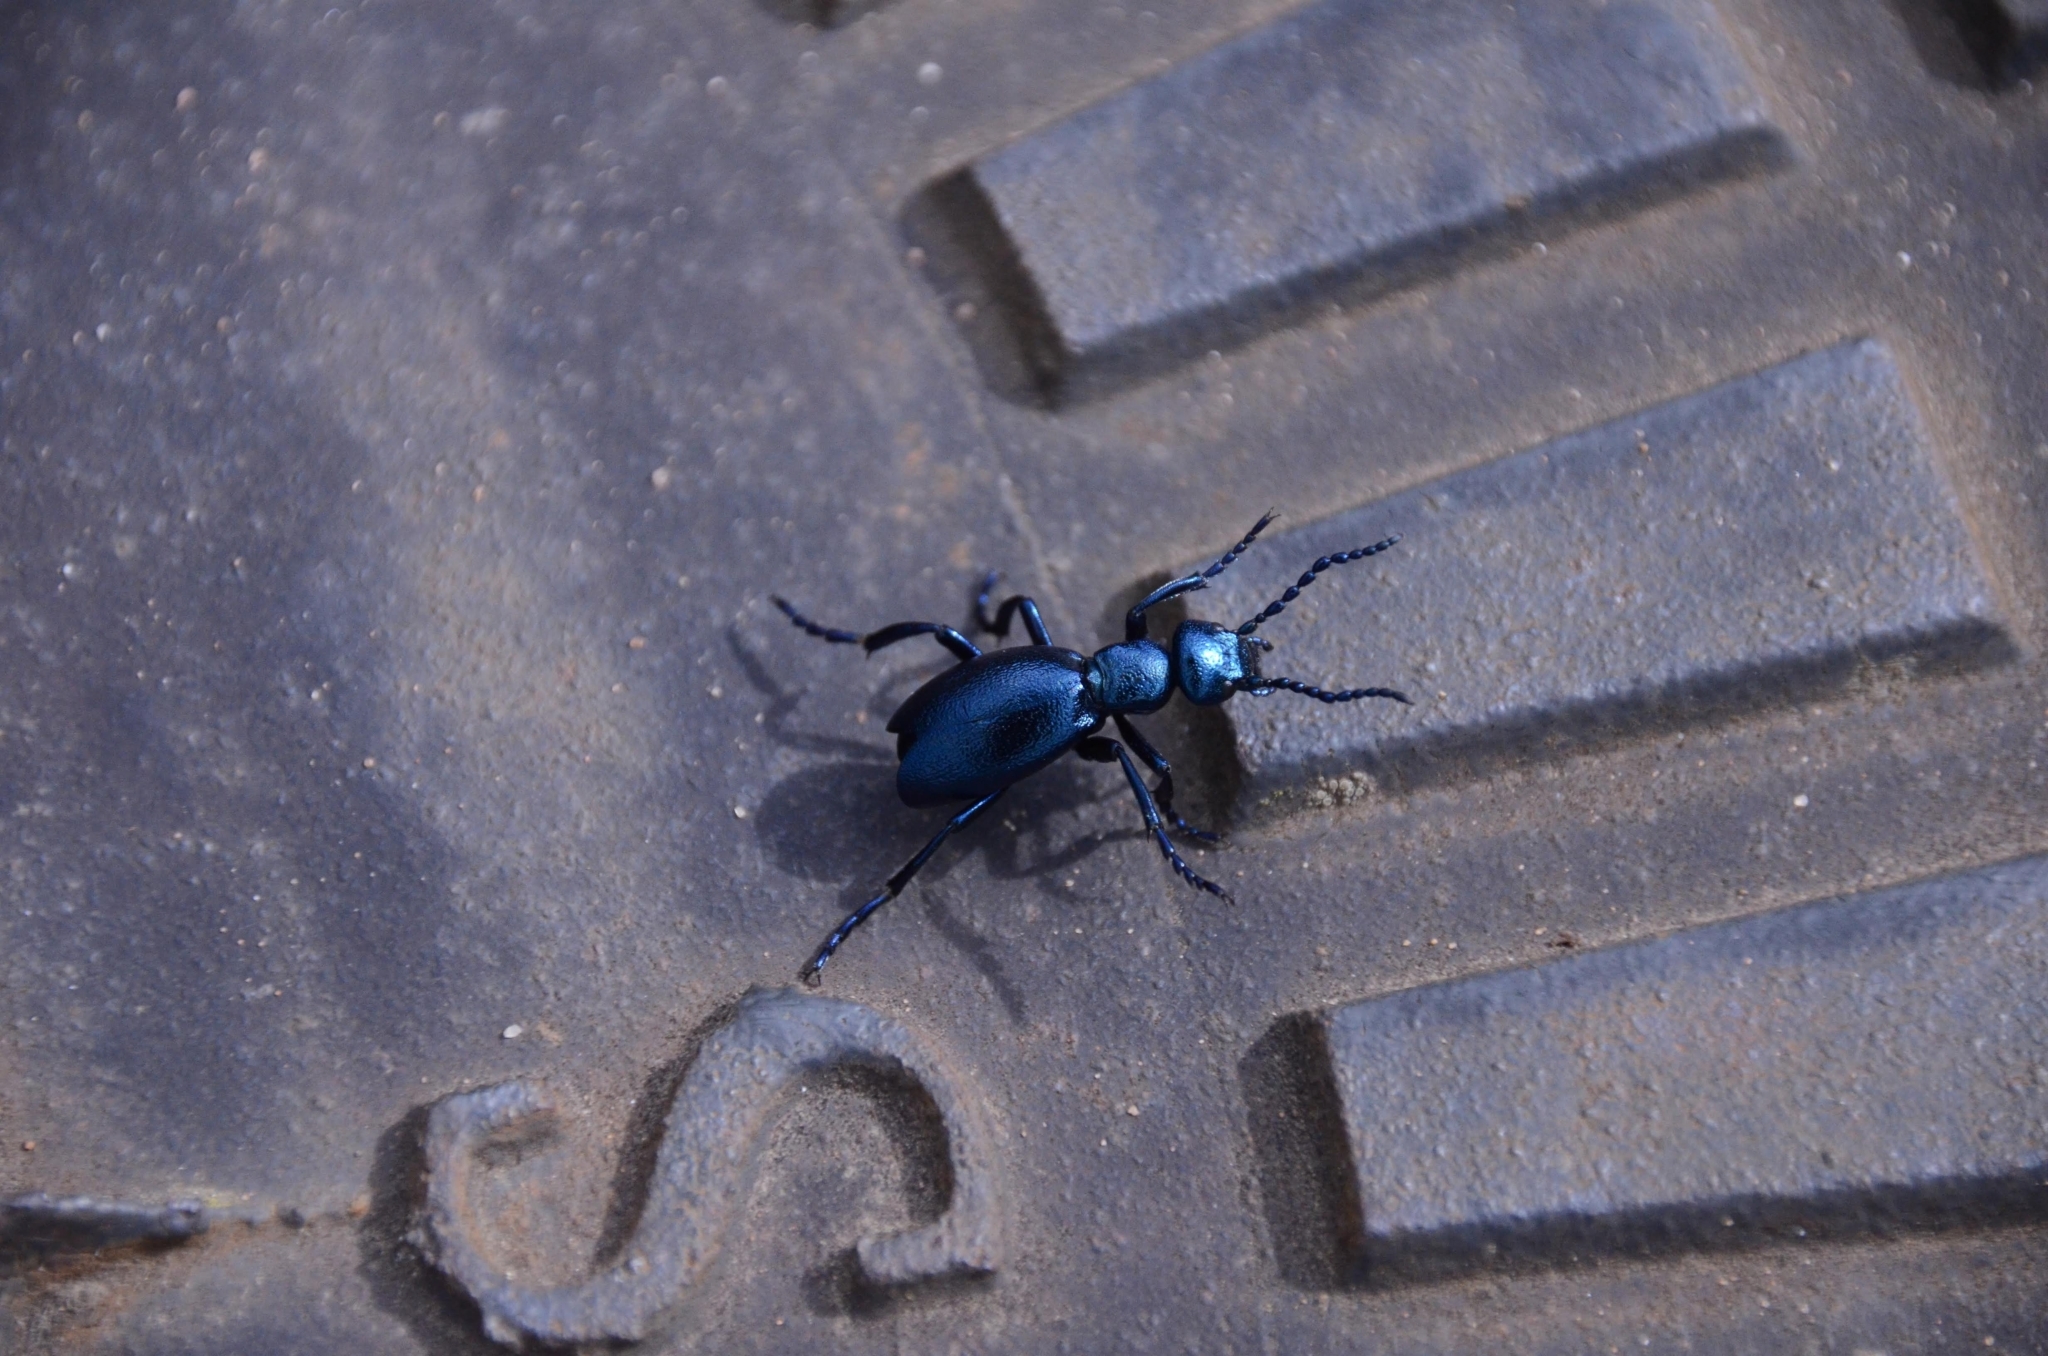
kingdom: Animalia
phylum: Arthropoda
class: Insecta
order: Coleoptera
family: Meloidae
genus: Meloe
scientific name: Meloe violaceus
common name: Violet oil-beetle
